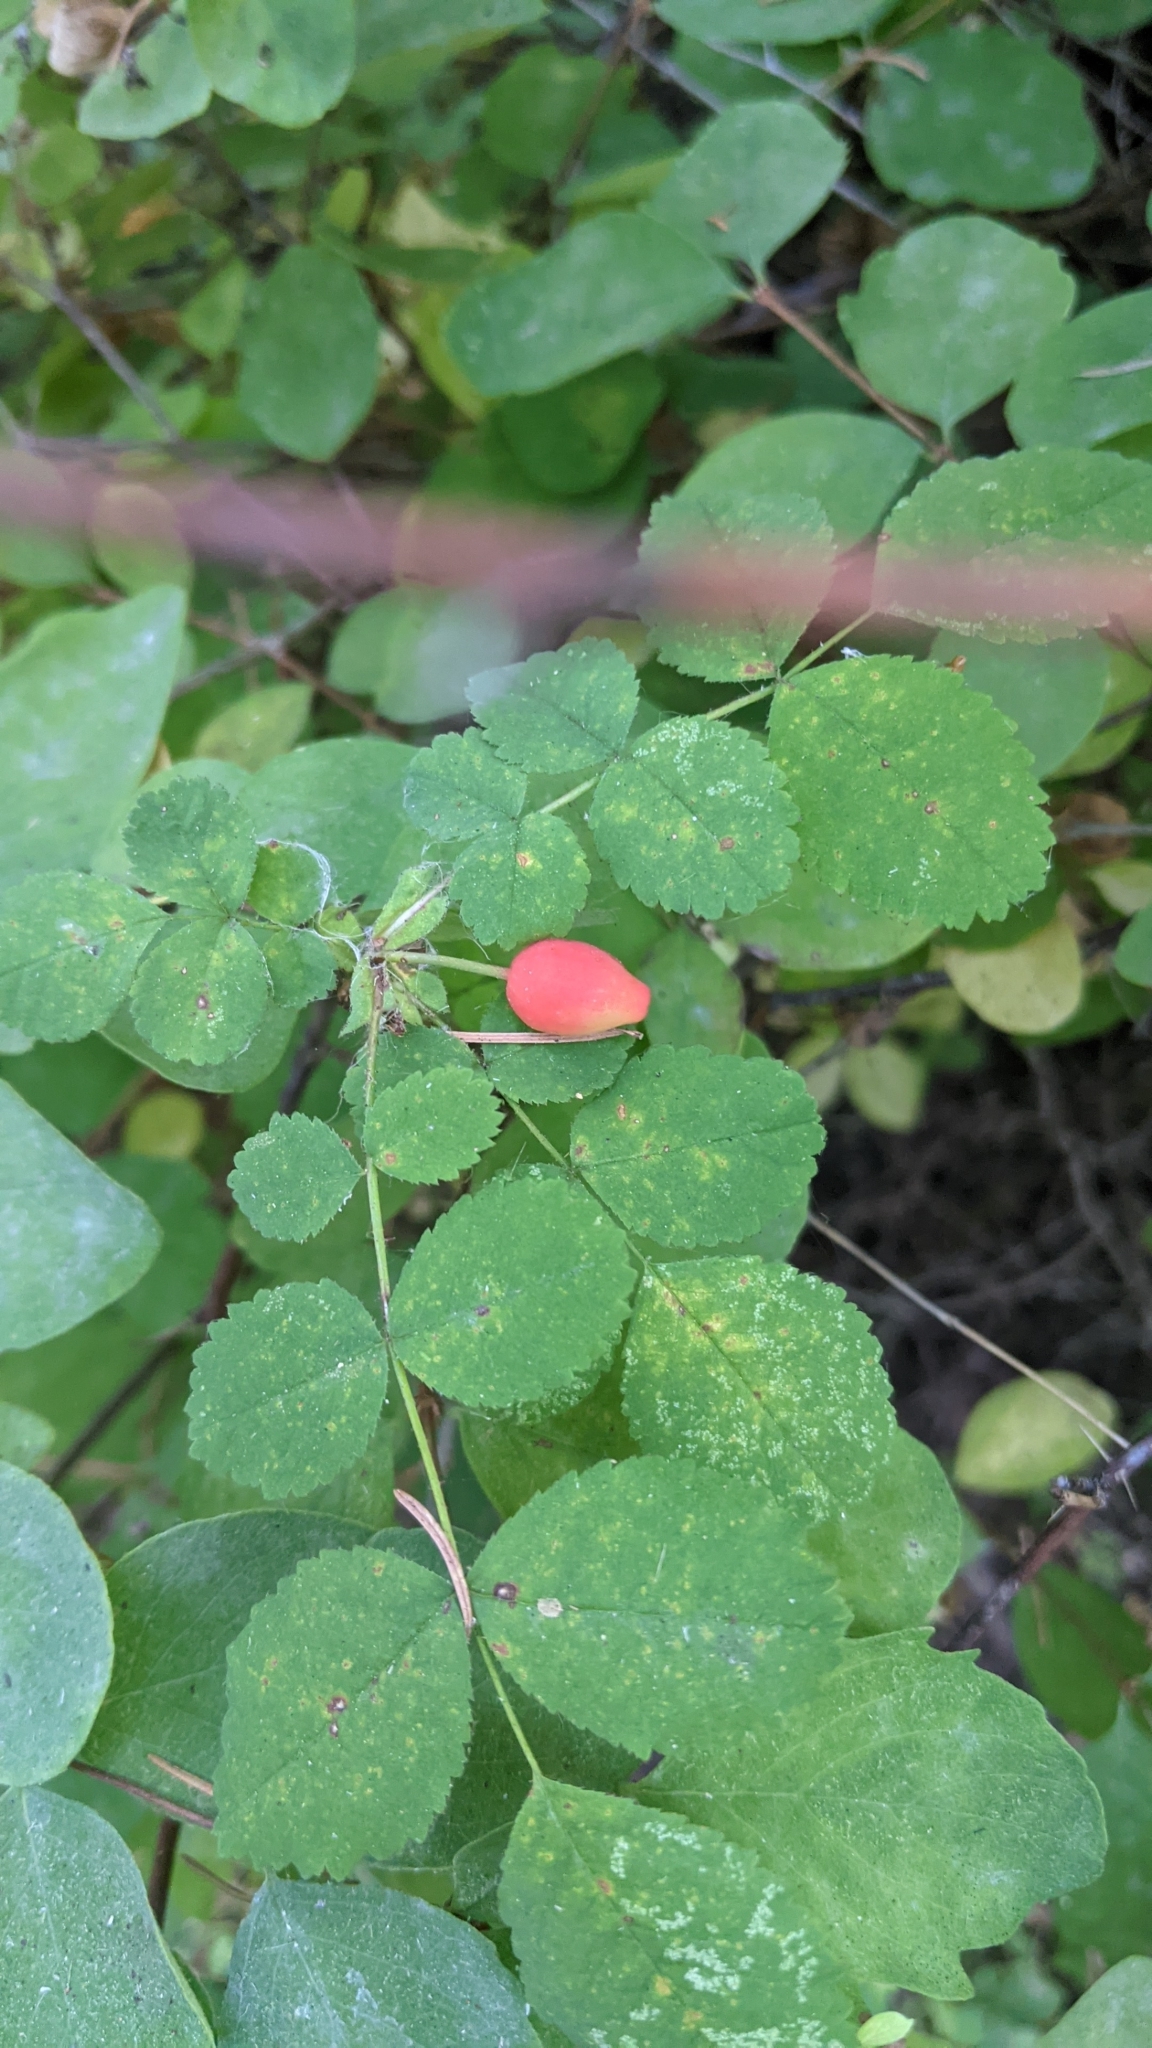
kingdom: Plantae
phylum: Tracheophyta
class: Magnoliopsida
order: Rosales
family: Rosaceae
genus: Rosa
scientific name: Rosa gymnocarpa
